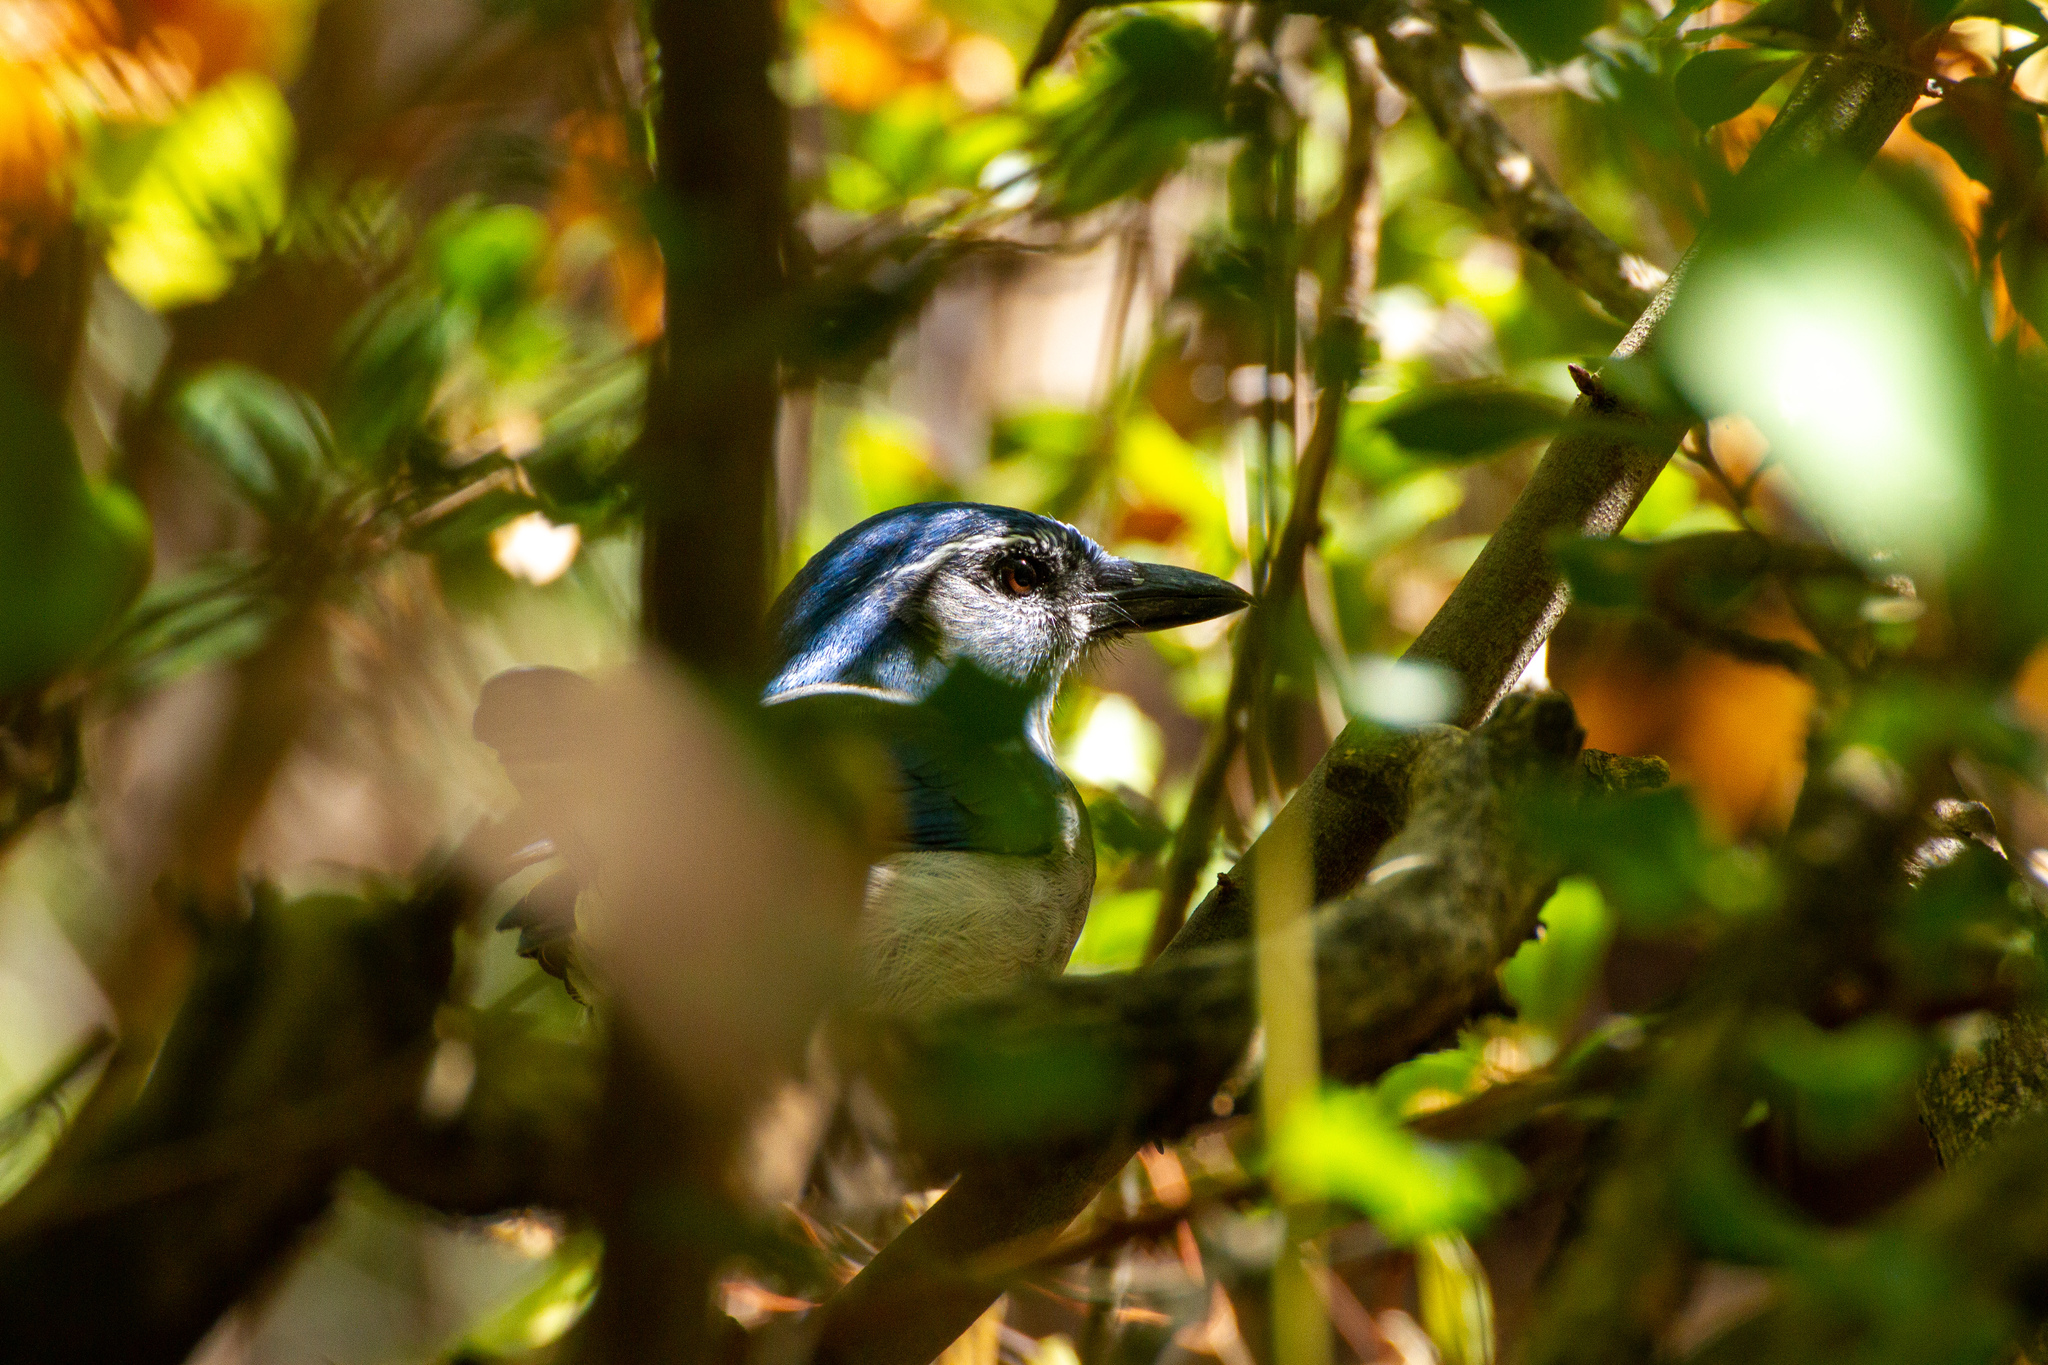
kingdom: Animalia
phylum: Chordata
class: Aves
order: Passeriformes
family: Corvidae
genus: Aphelocoma
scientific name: Aphelocoma californica
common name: California scrub-jay
